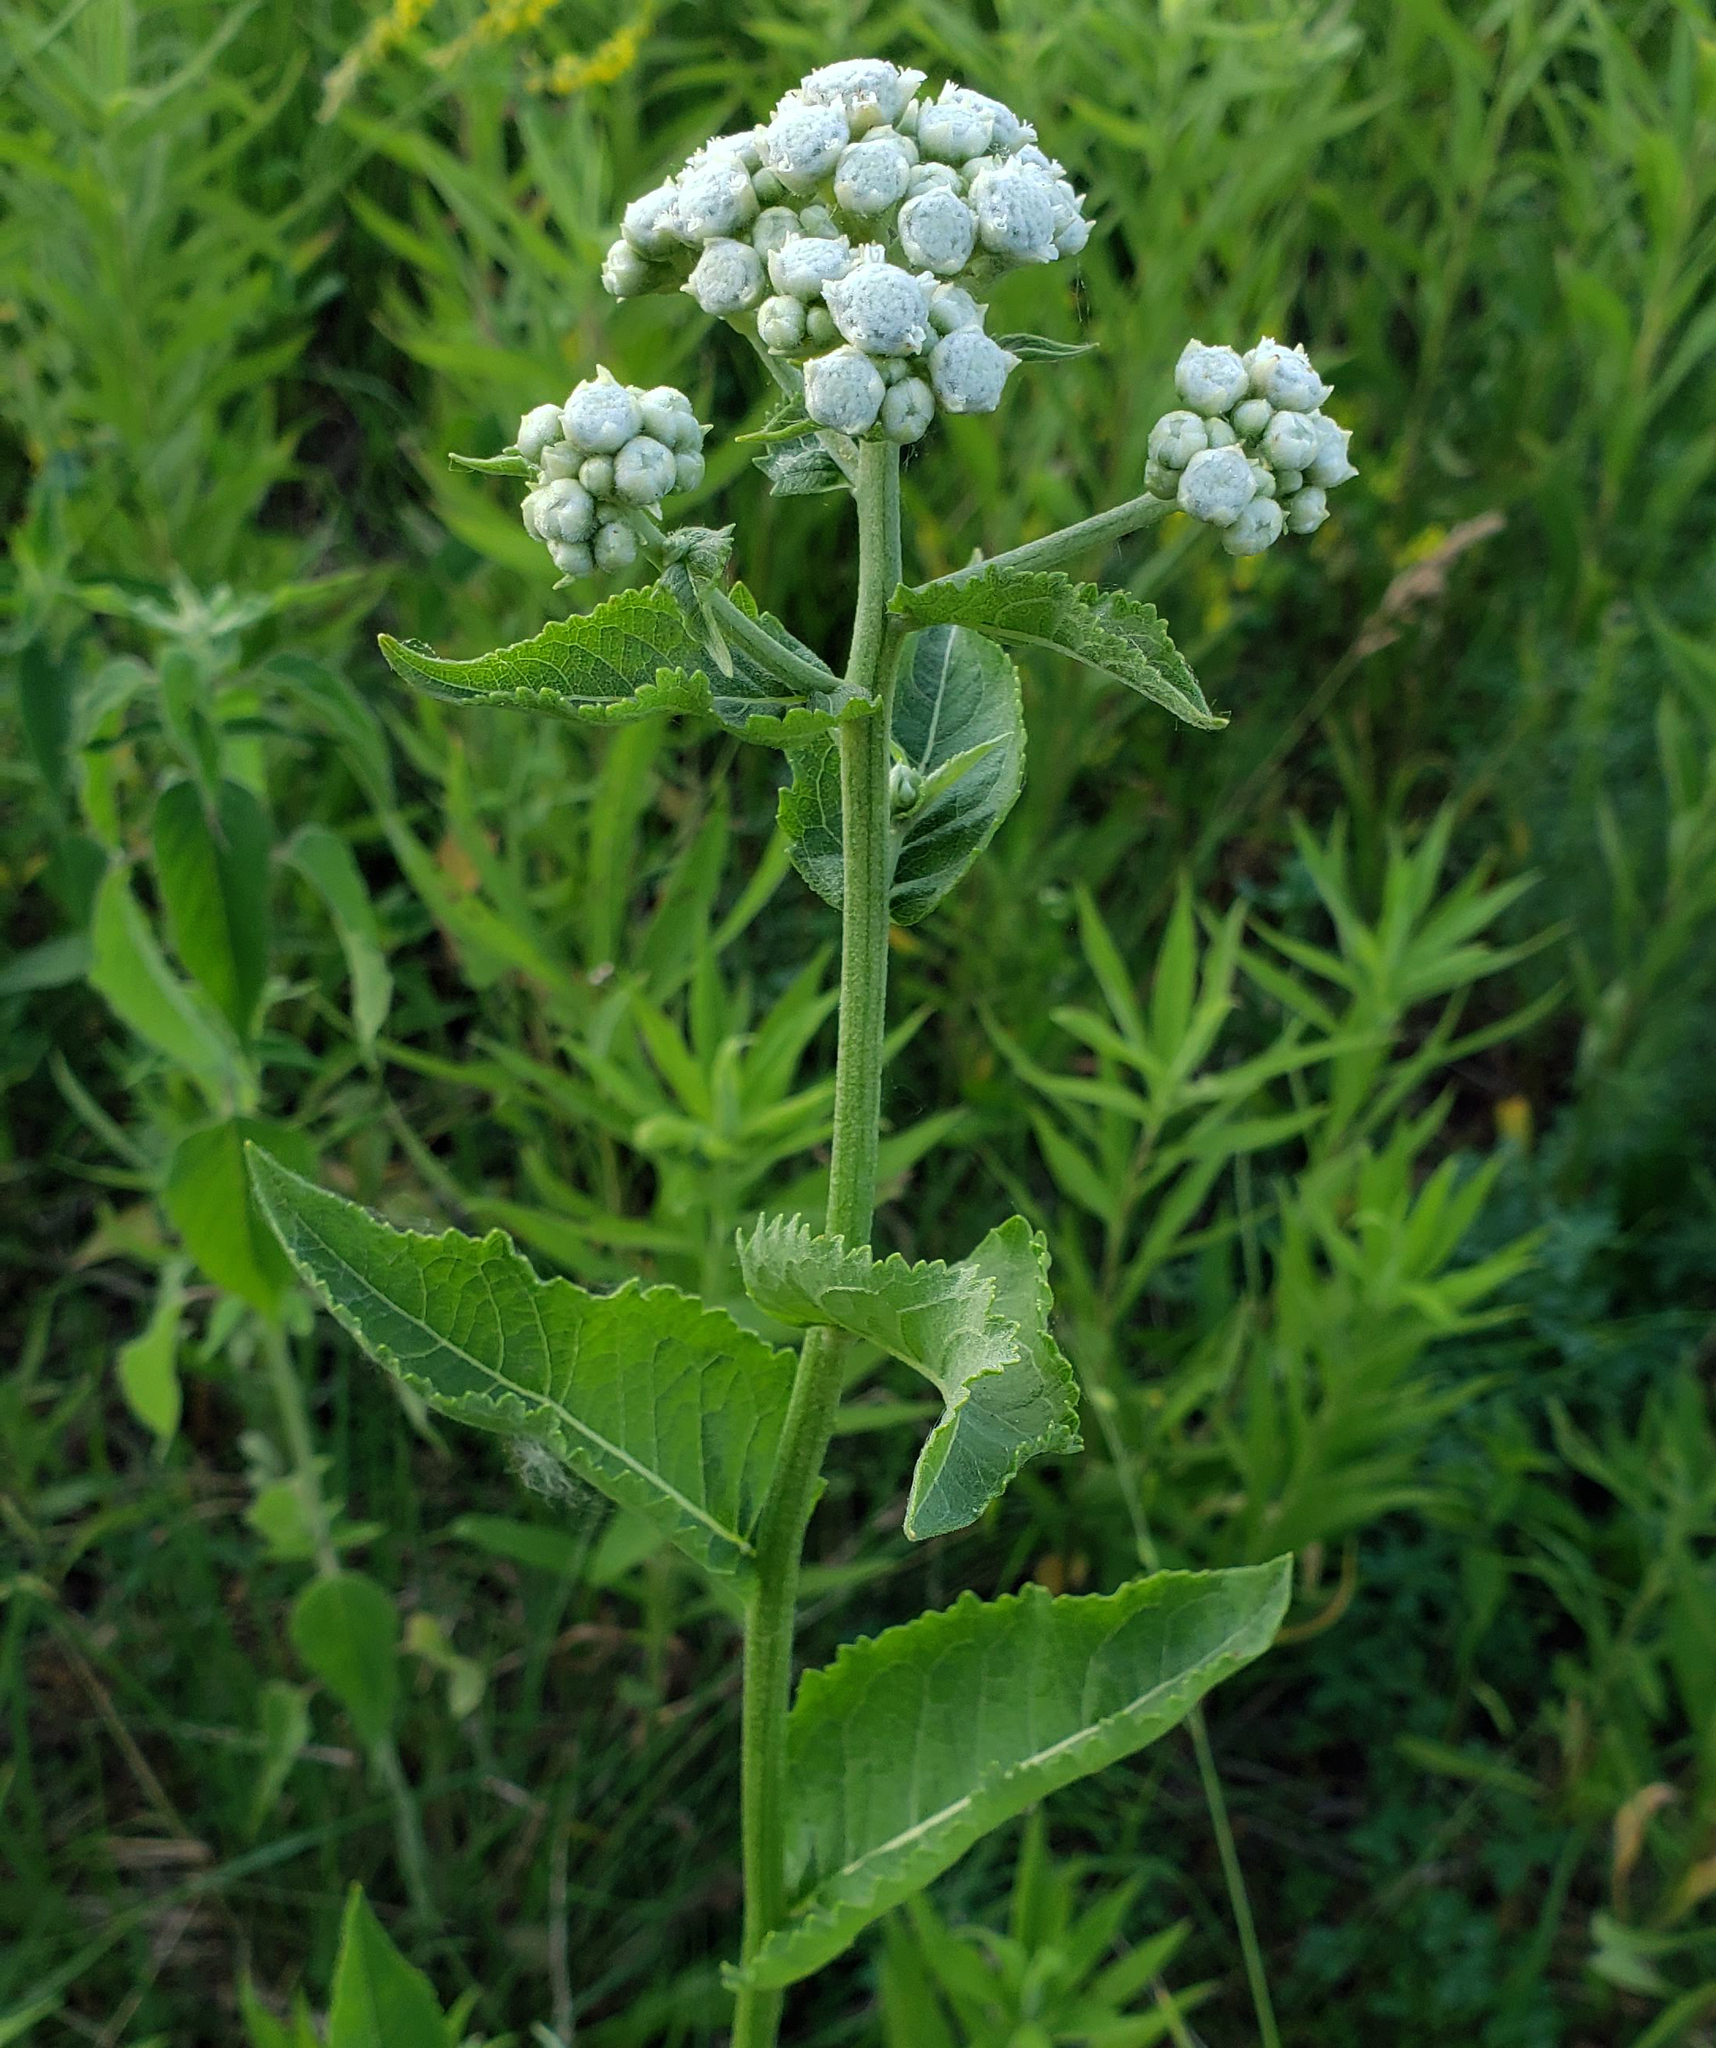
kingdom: Plantae
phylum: Tracheophyta
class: Magnoliopsida
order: Asterales
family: Asteraceae
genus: Parthenium
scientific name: Parthenium integrifolium
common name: American feverfew
